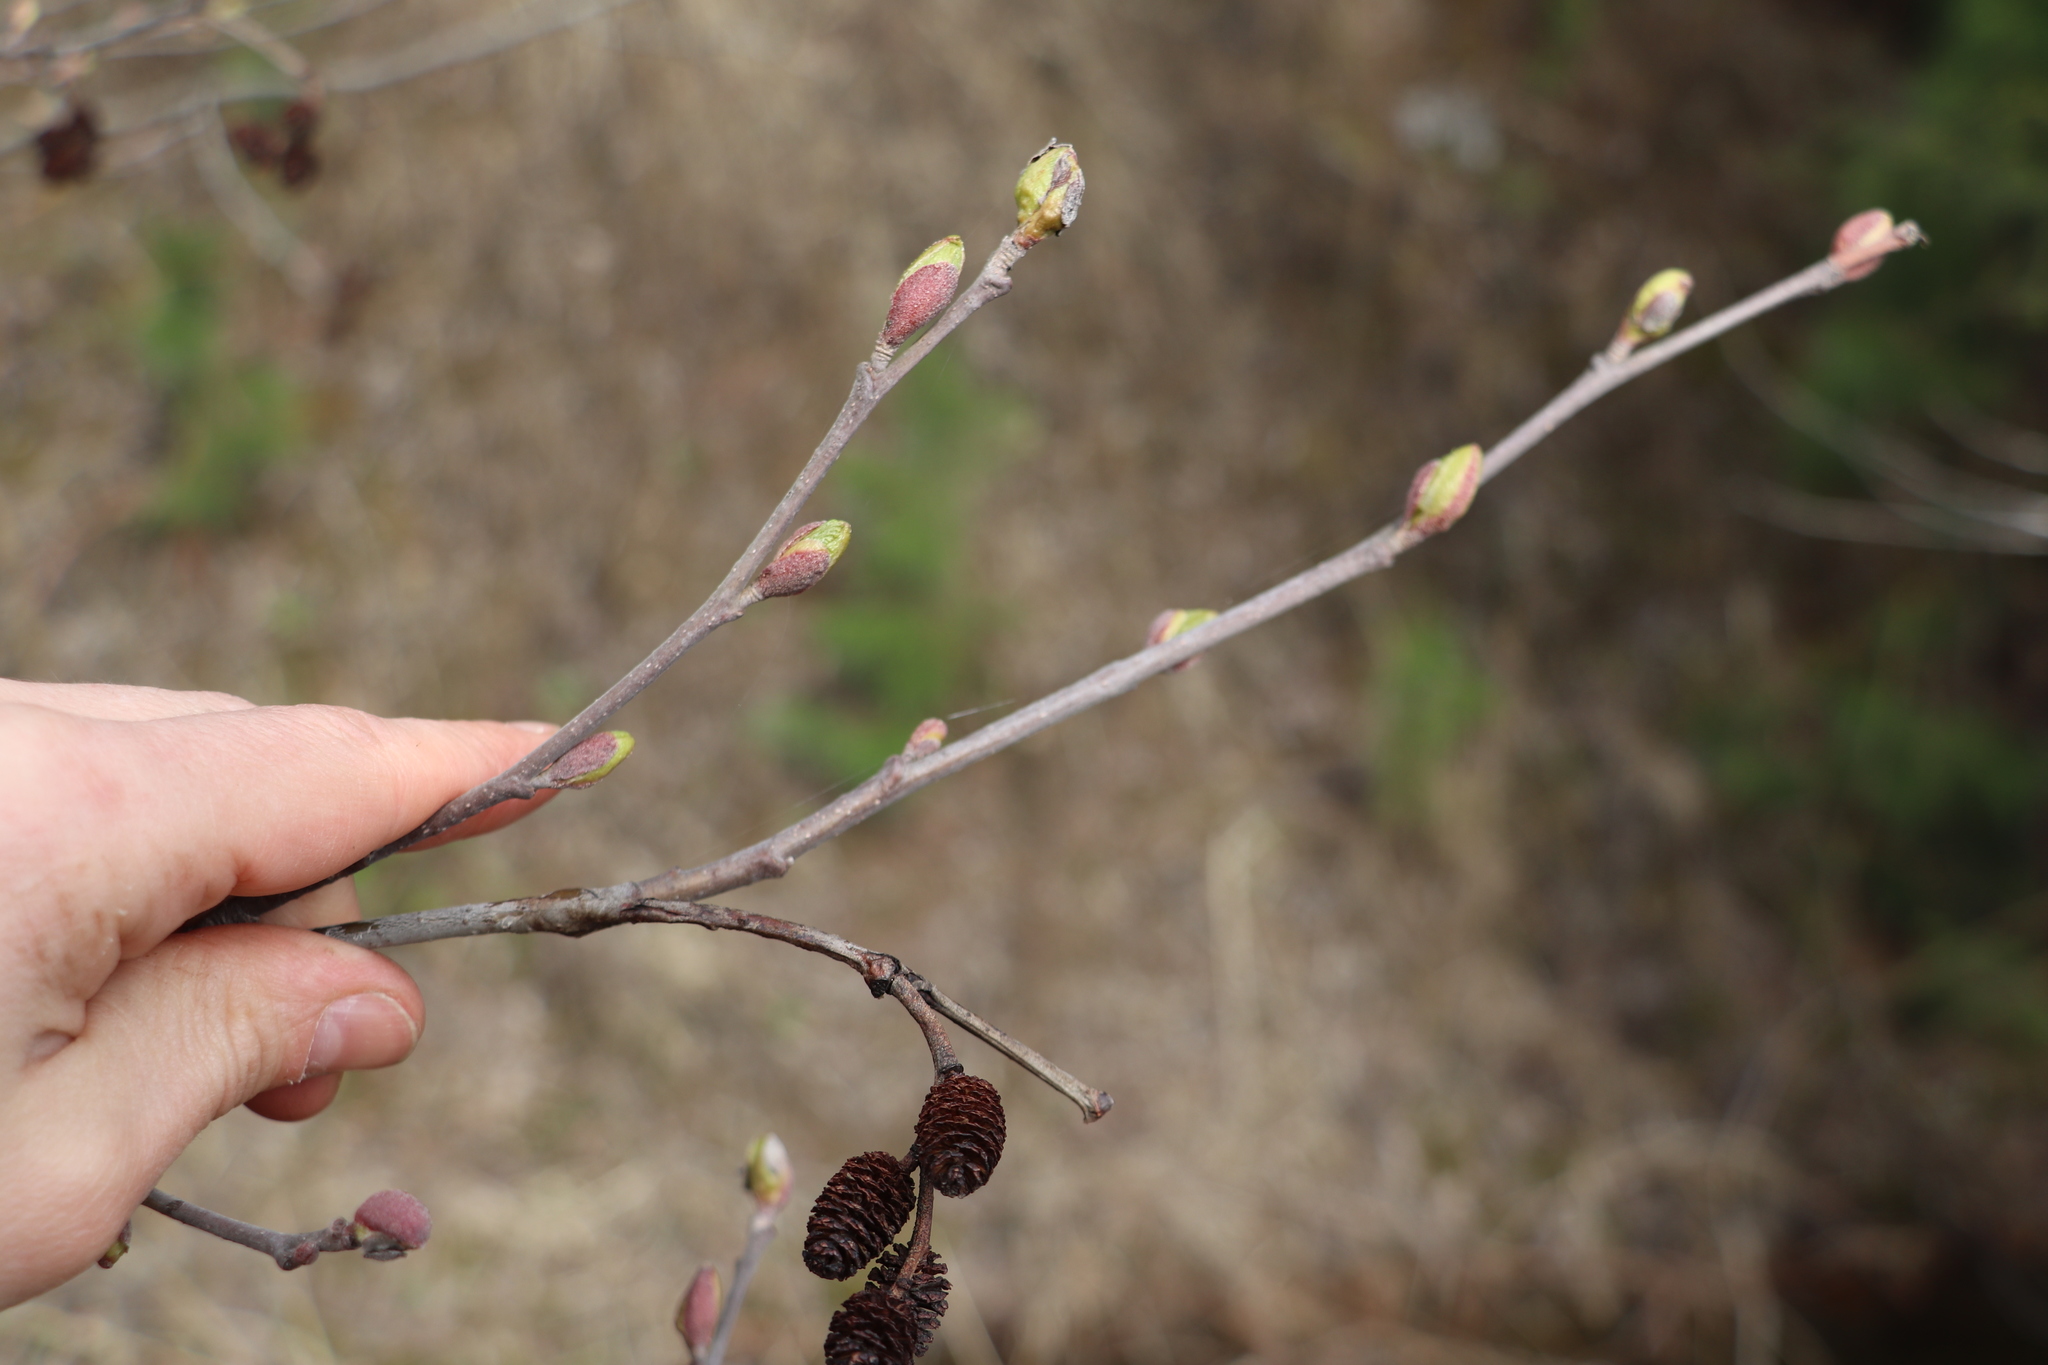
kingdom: Plantae
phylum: Tracheophyta
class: Magnoliopsida
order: Fagales
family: Betulaceae
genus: Alnus
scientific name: Alnus incana
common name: Grey alder
